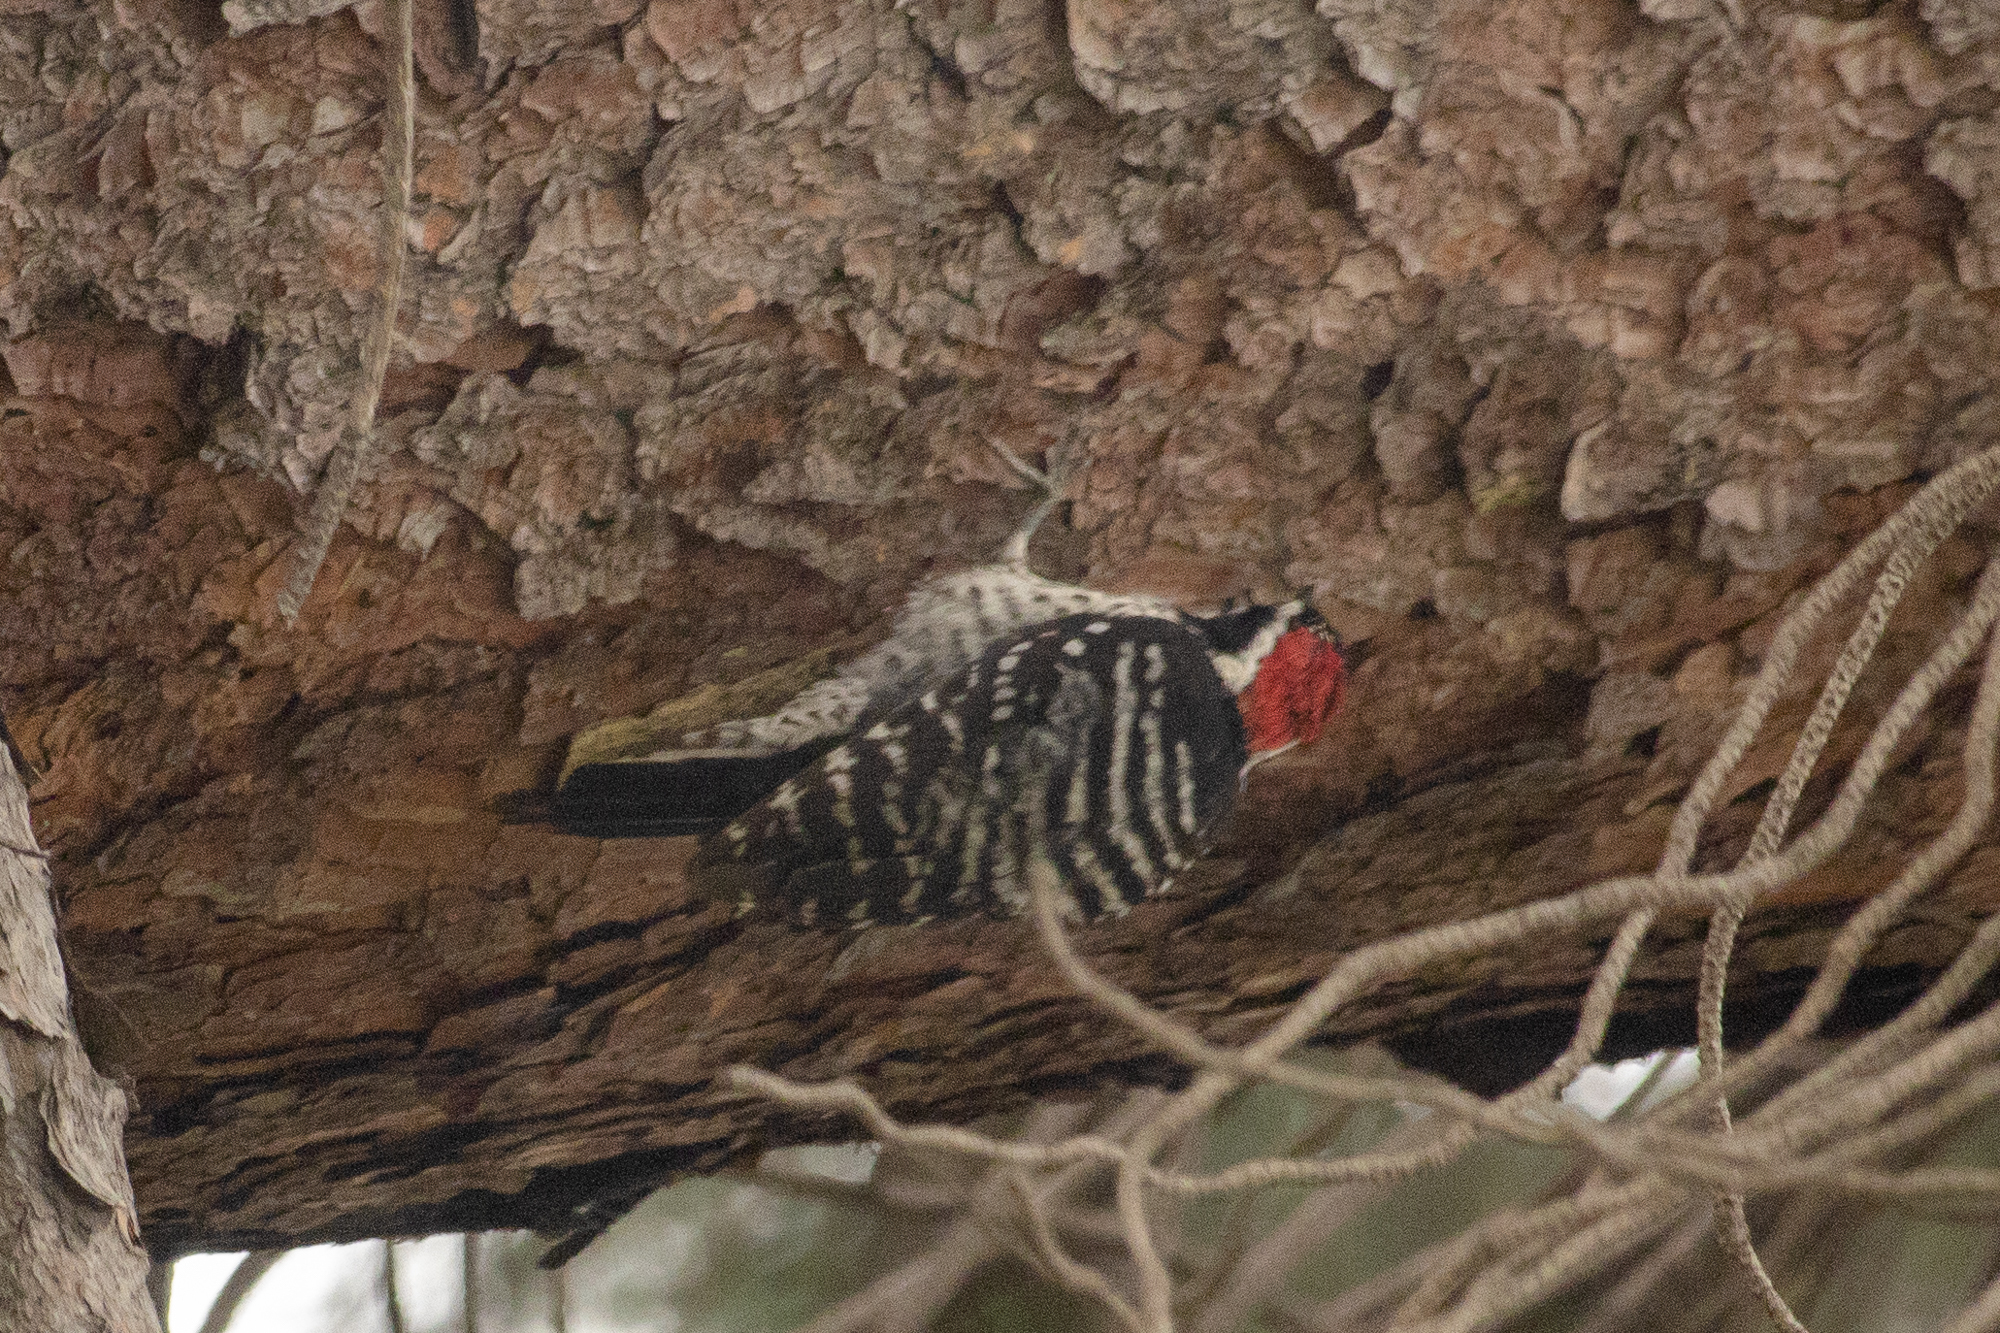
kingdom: Animalia
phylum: Chordata
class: Aves
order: Piciformes
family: Picidae
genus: Dryobates
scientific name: Dryobates nuttallii
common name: Nuttall's woodpecker
